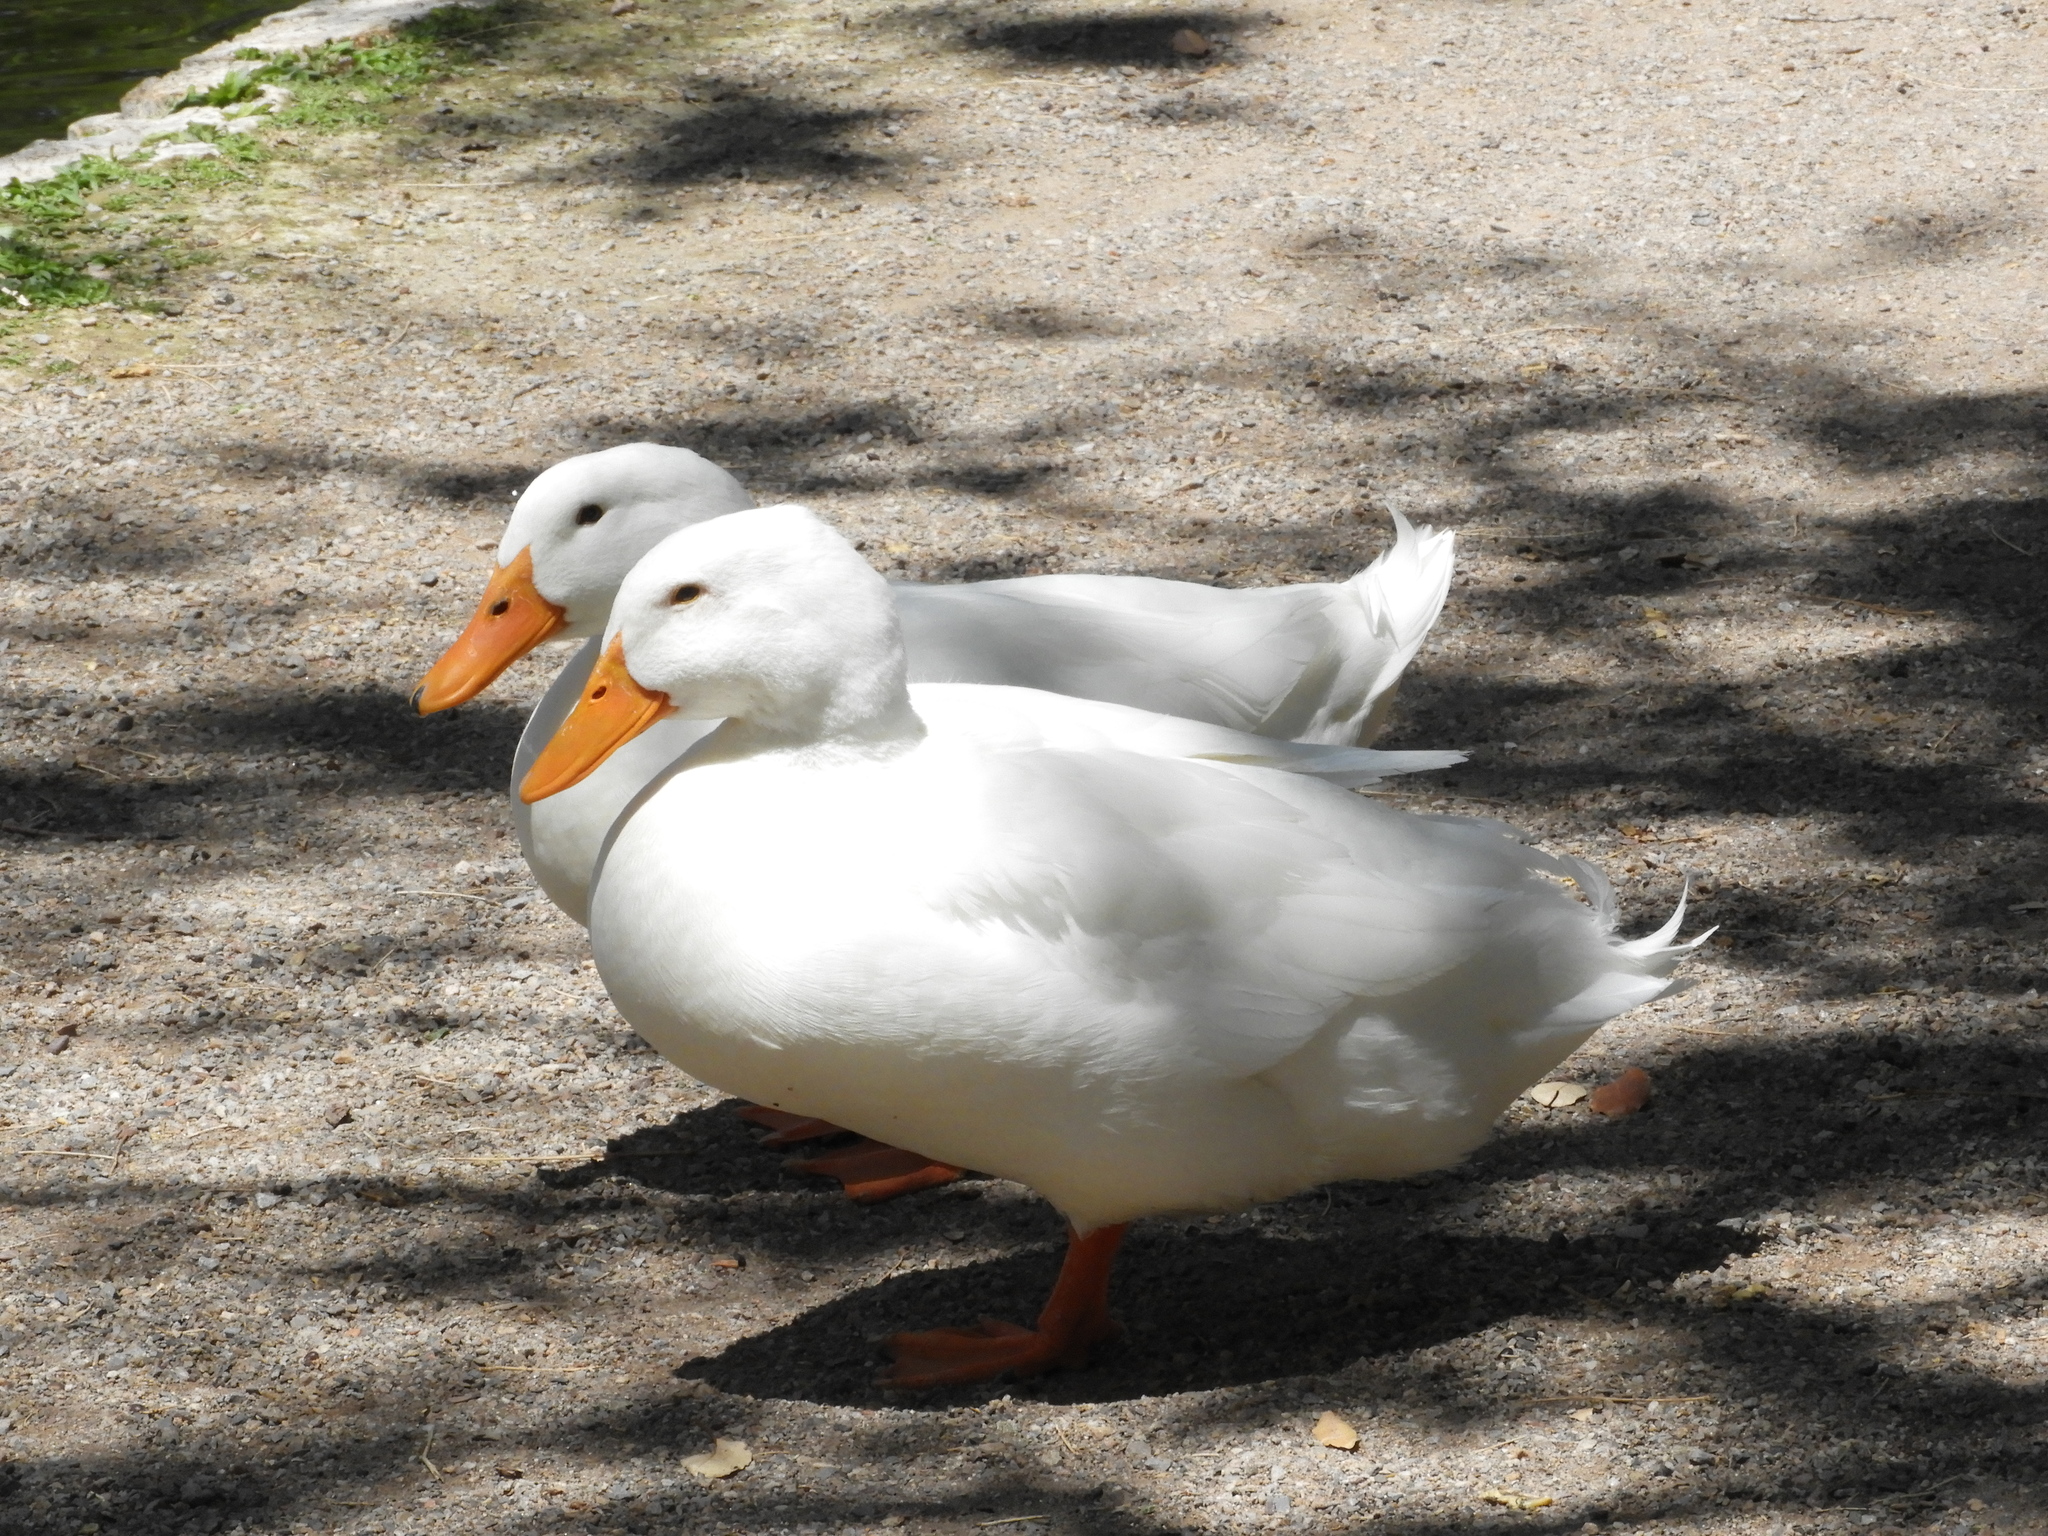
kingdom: Animalia
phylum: Chordata
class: Aves
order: Anseriformes
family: Anatidae
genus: Anas
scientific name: Anas platyrhynchos
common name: Mallard
